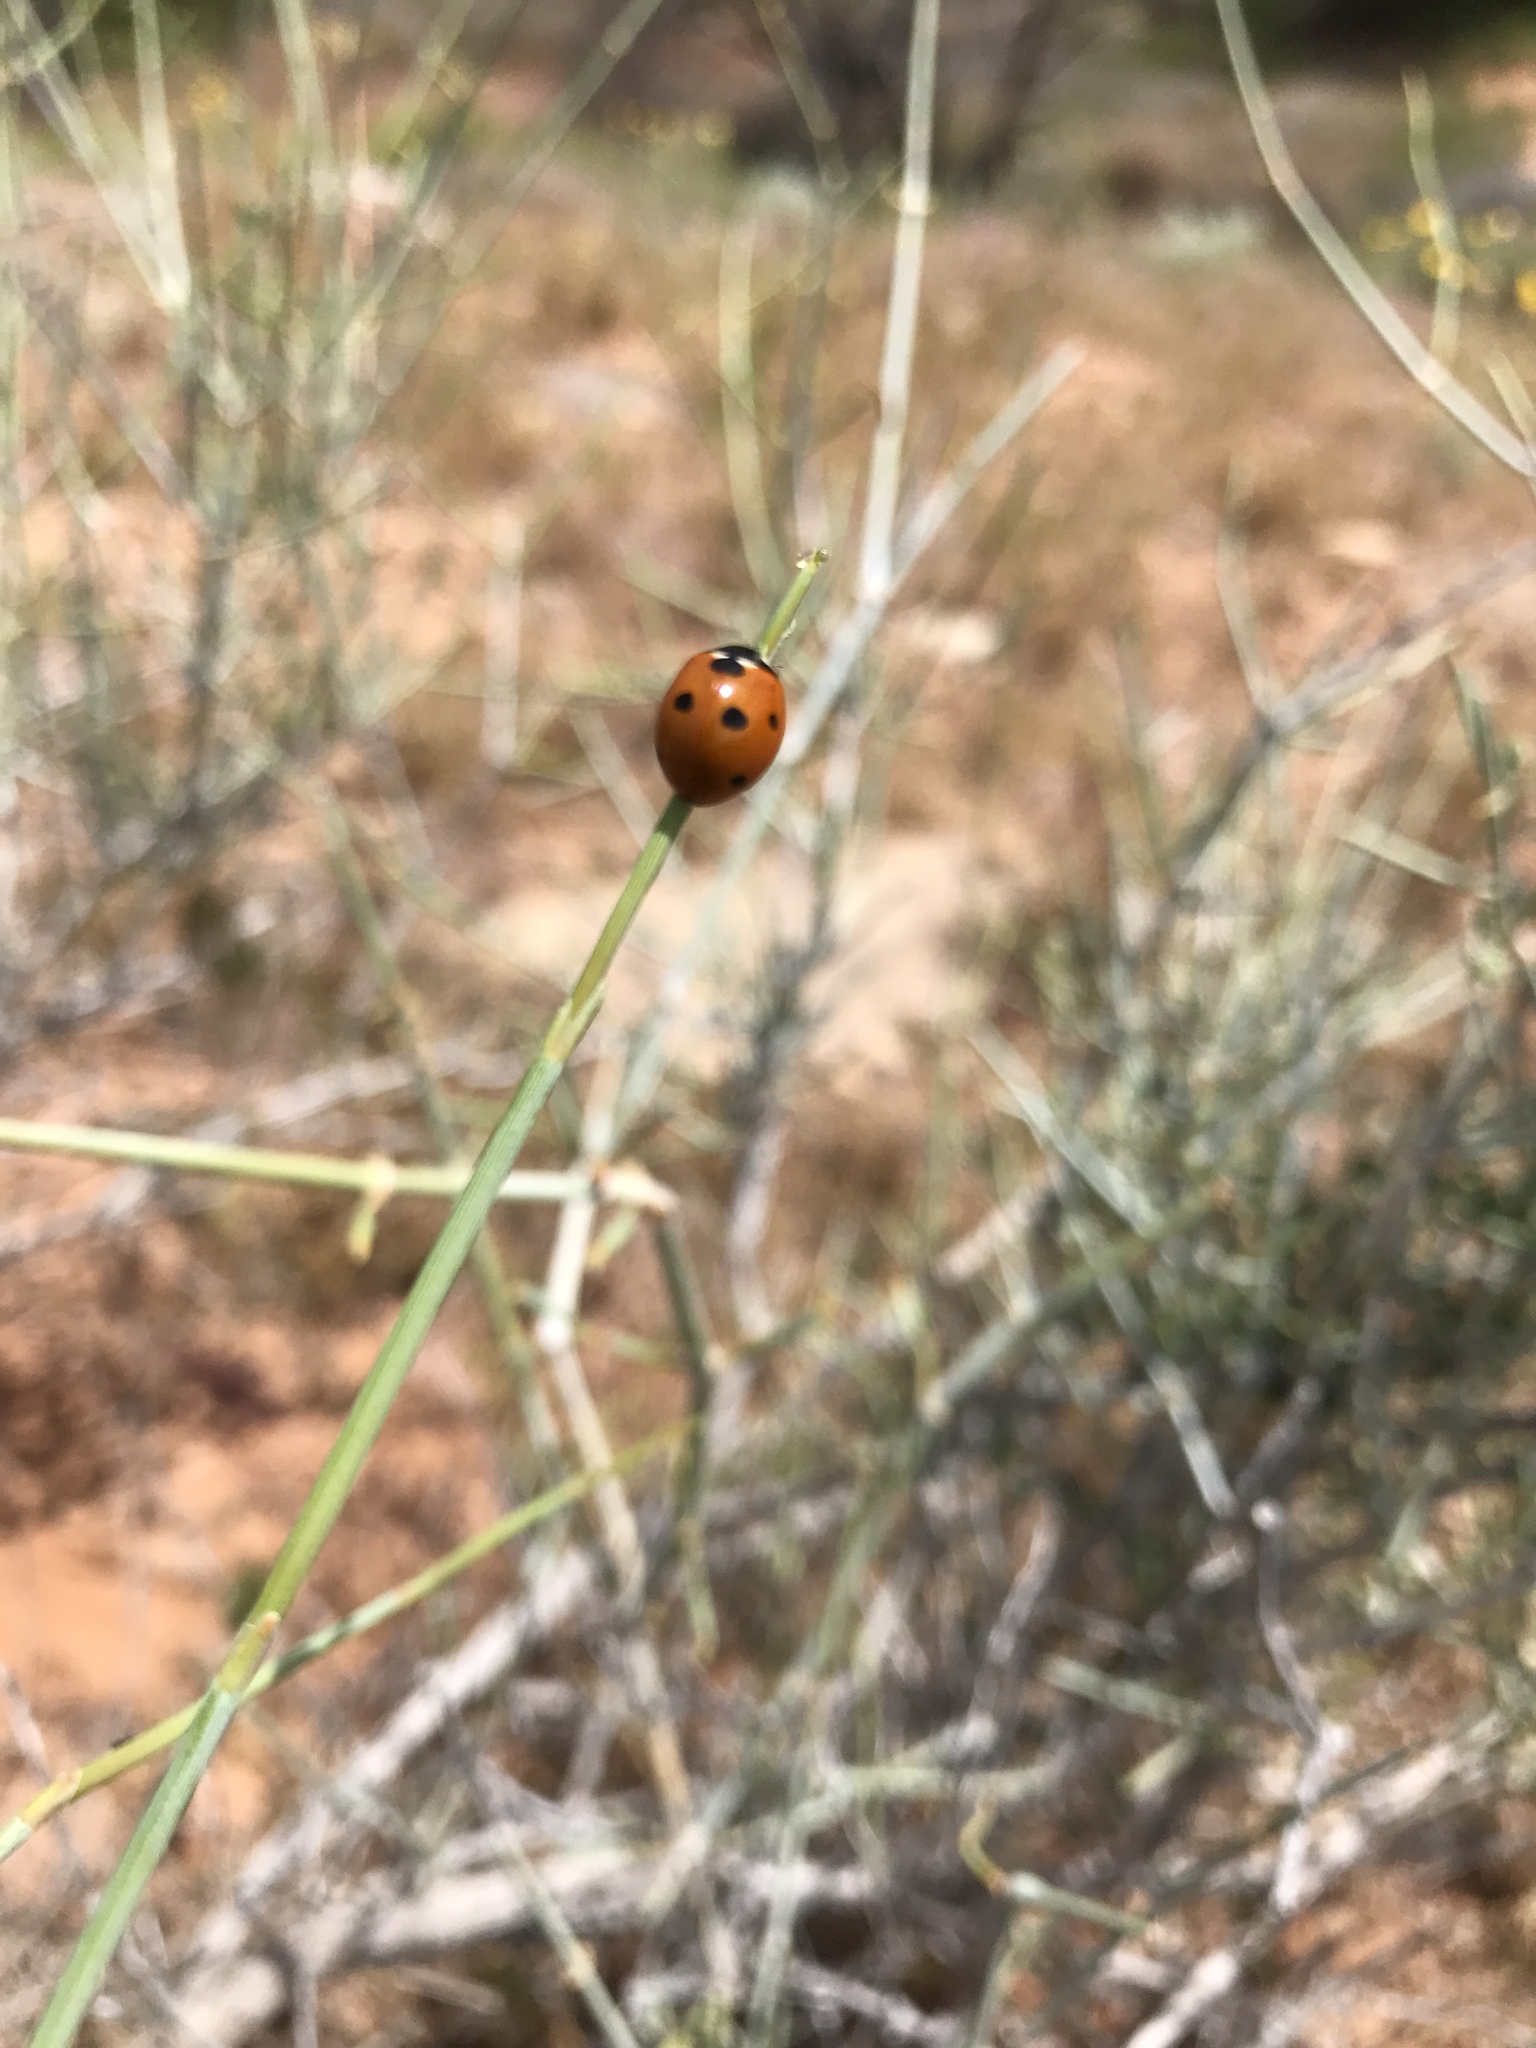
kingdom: Animalia
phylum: Arthropoda
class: Insecta
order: Coleoptera
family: Coccinellidae
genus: Coccinella
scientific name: Coccinella septempunctata
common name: Sevenspotted lady beetle
